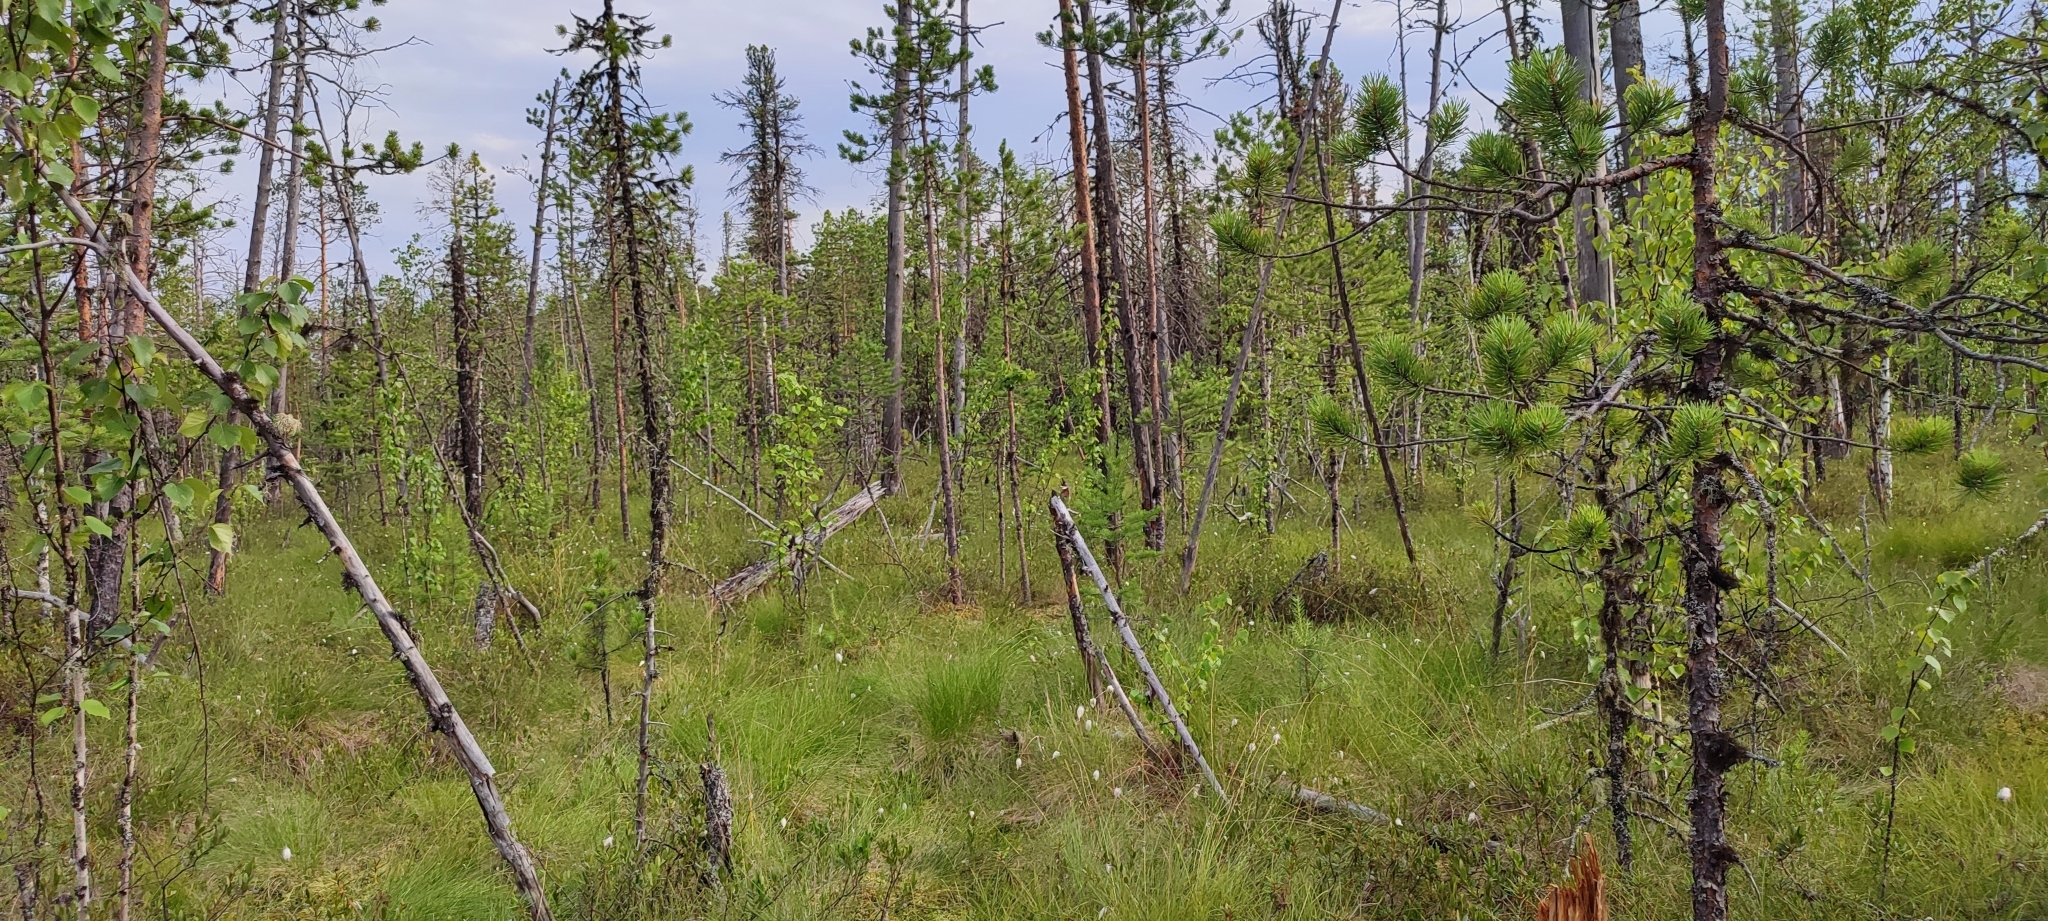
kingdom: Plantae
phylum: Tracheophyta
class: Pinopsida
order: Pinales
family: Pinaceae
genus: Pinus
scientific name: Pinus sylvestris
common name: Scots pine
